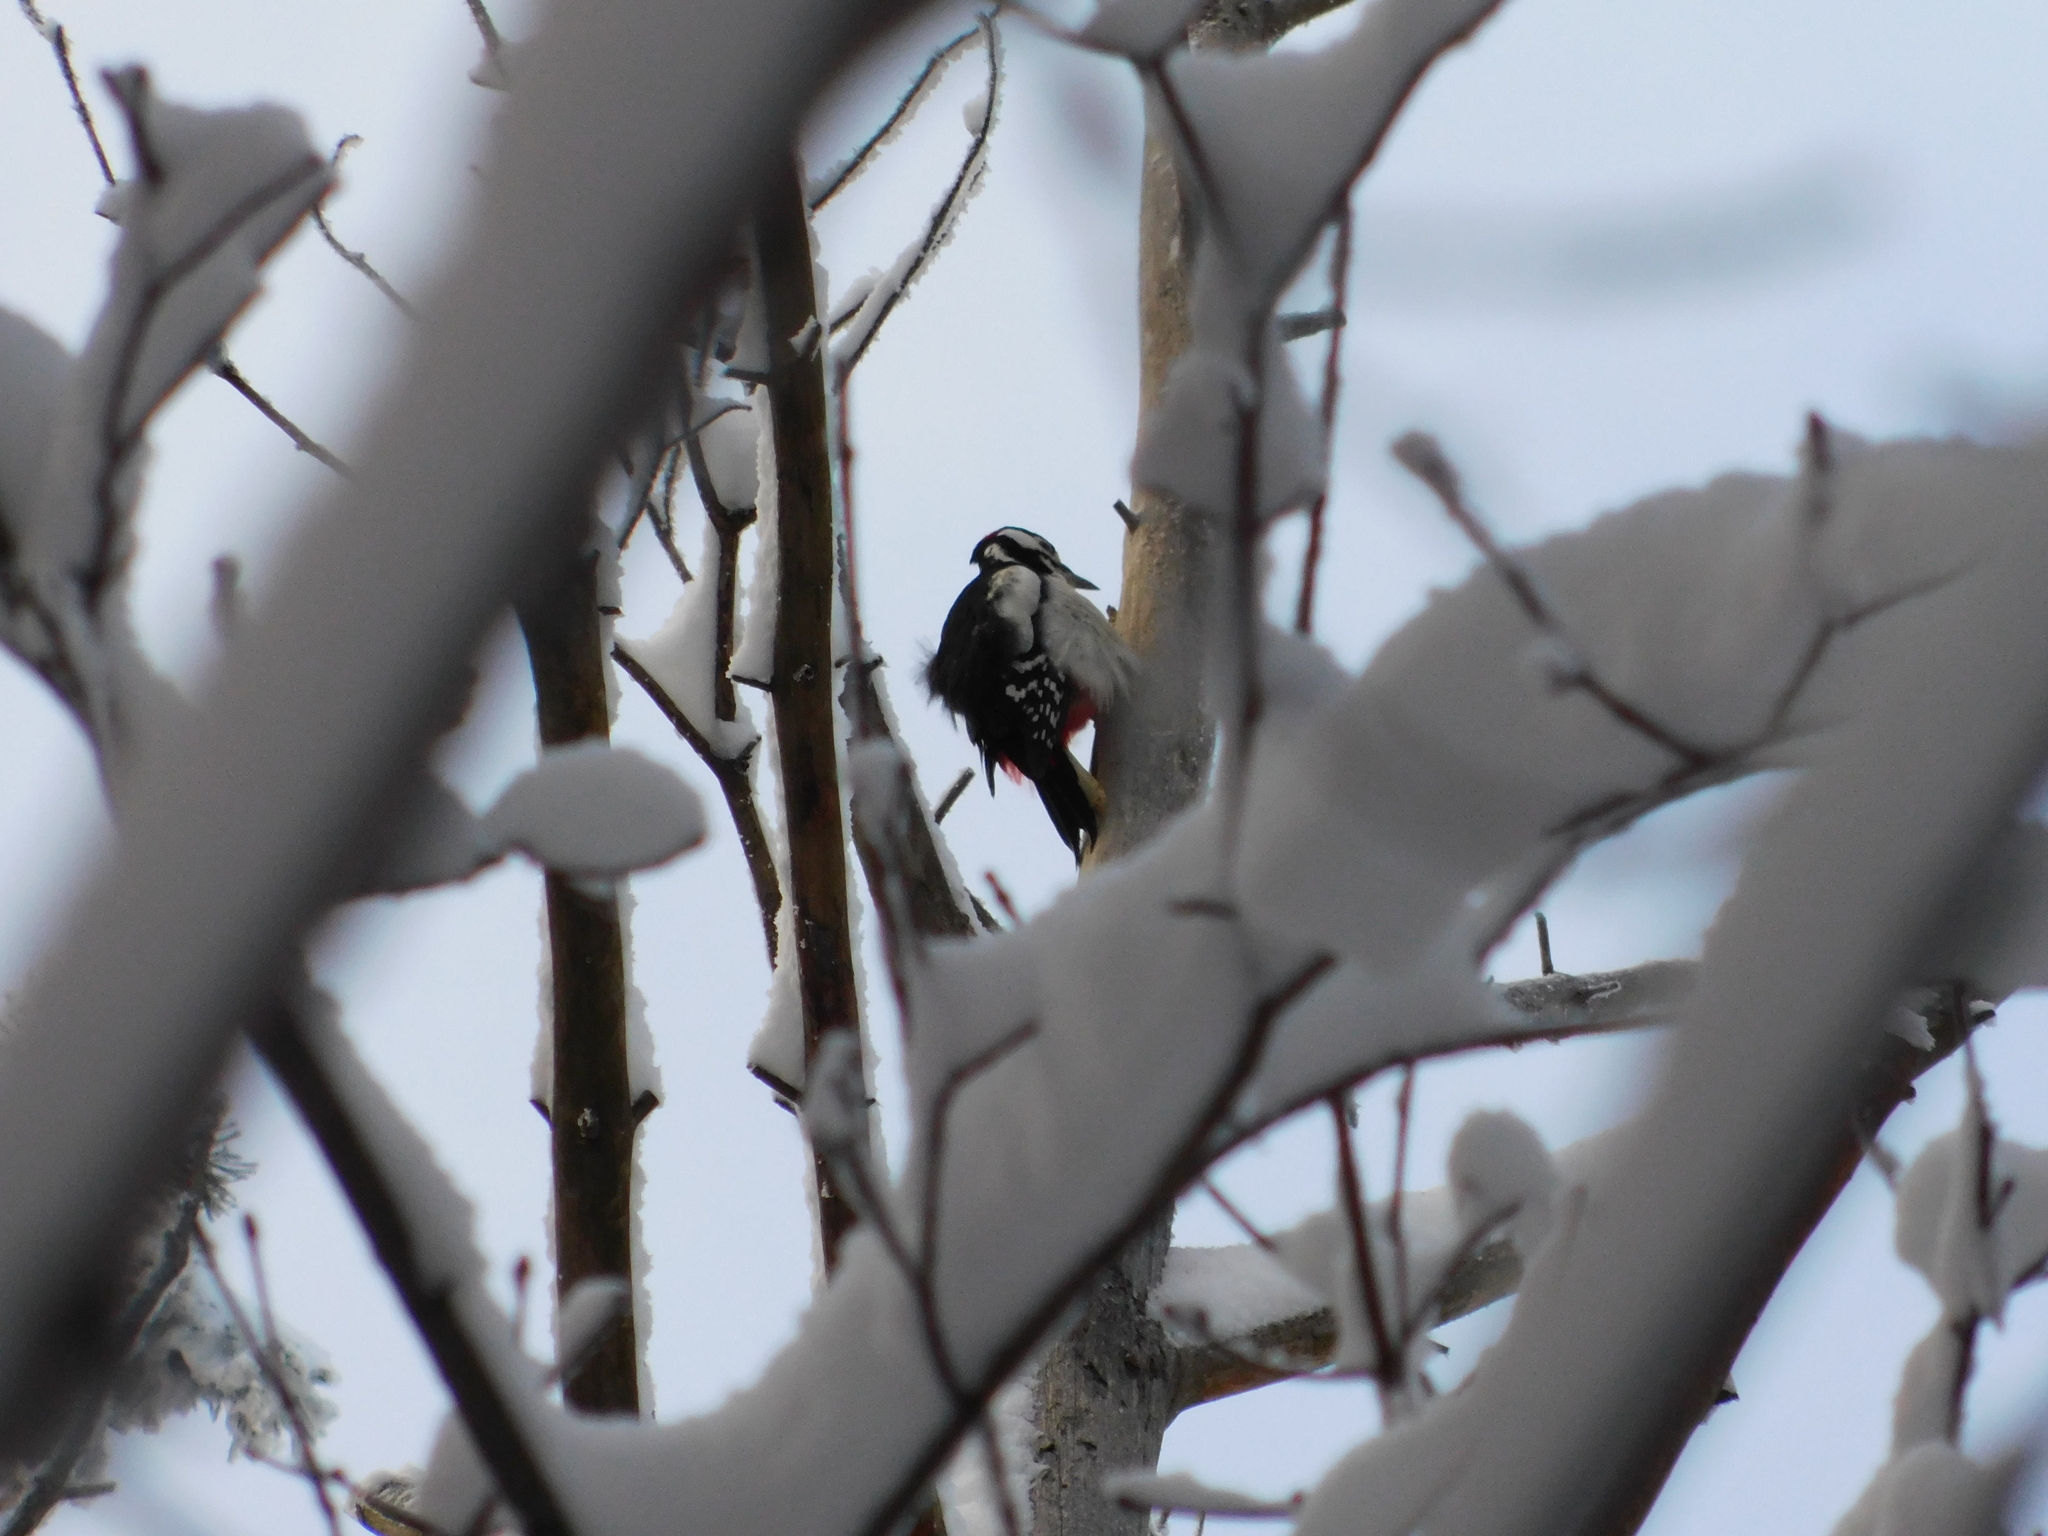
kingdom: Animalia
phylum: Chordata
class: Aves
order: Piciformes
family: Picidae
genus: Dendrocopos
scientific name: Dendrocopos major
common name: Great spotted woodpecker
